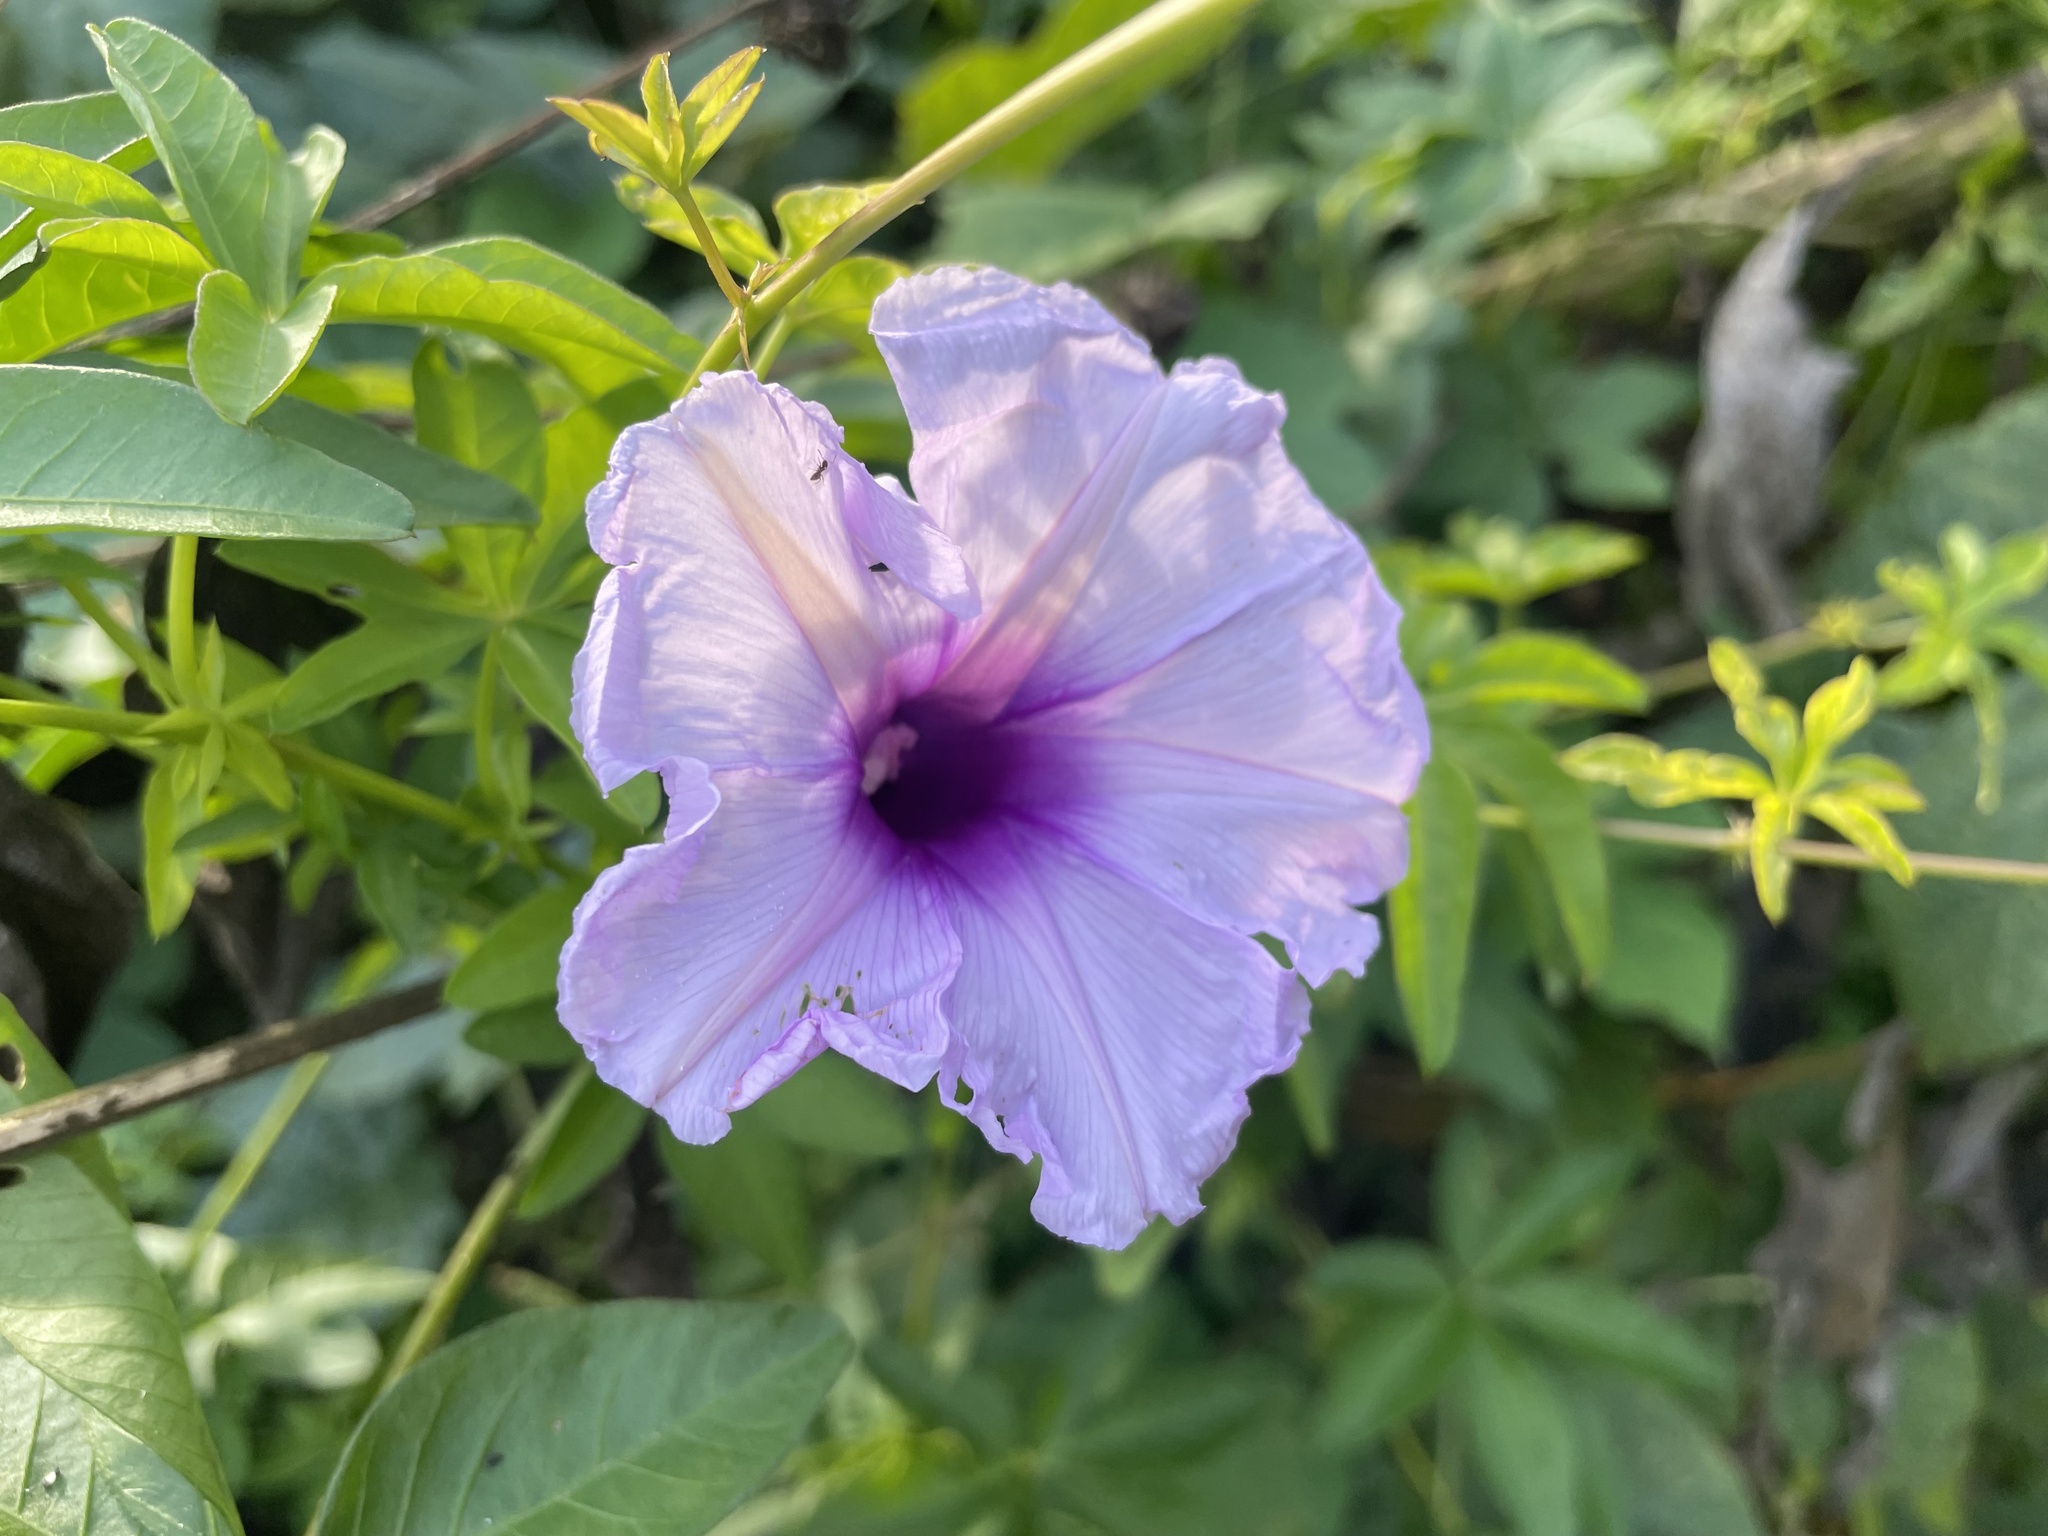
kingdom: Plantae
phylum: Tracheophyta
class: Magnoliopsida
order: Solanales
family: Convolvulaceae
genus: Ipomoea
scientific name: Ipomoea cairica
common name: Mile a minute vine
